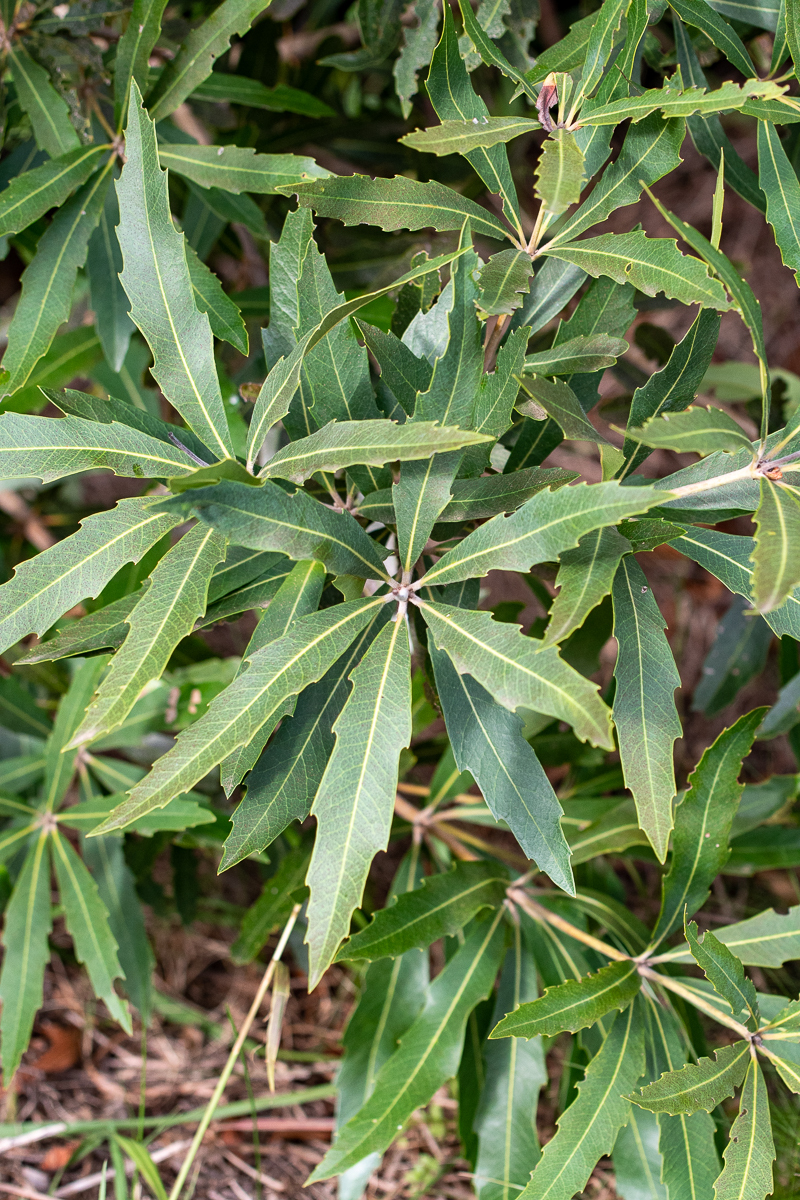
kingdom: Plantae
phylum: Tracheophyta
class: Magnoliopsida
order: Proteales
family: Proteaceae
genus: Brabejum
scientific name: Brabejum stellatifolium
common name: Wild almond
